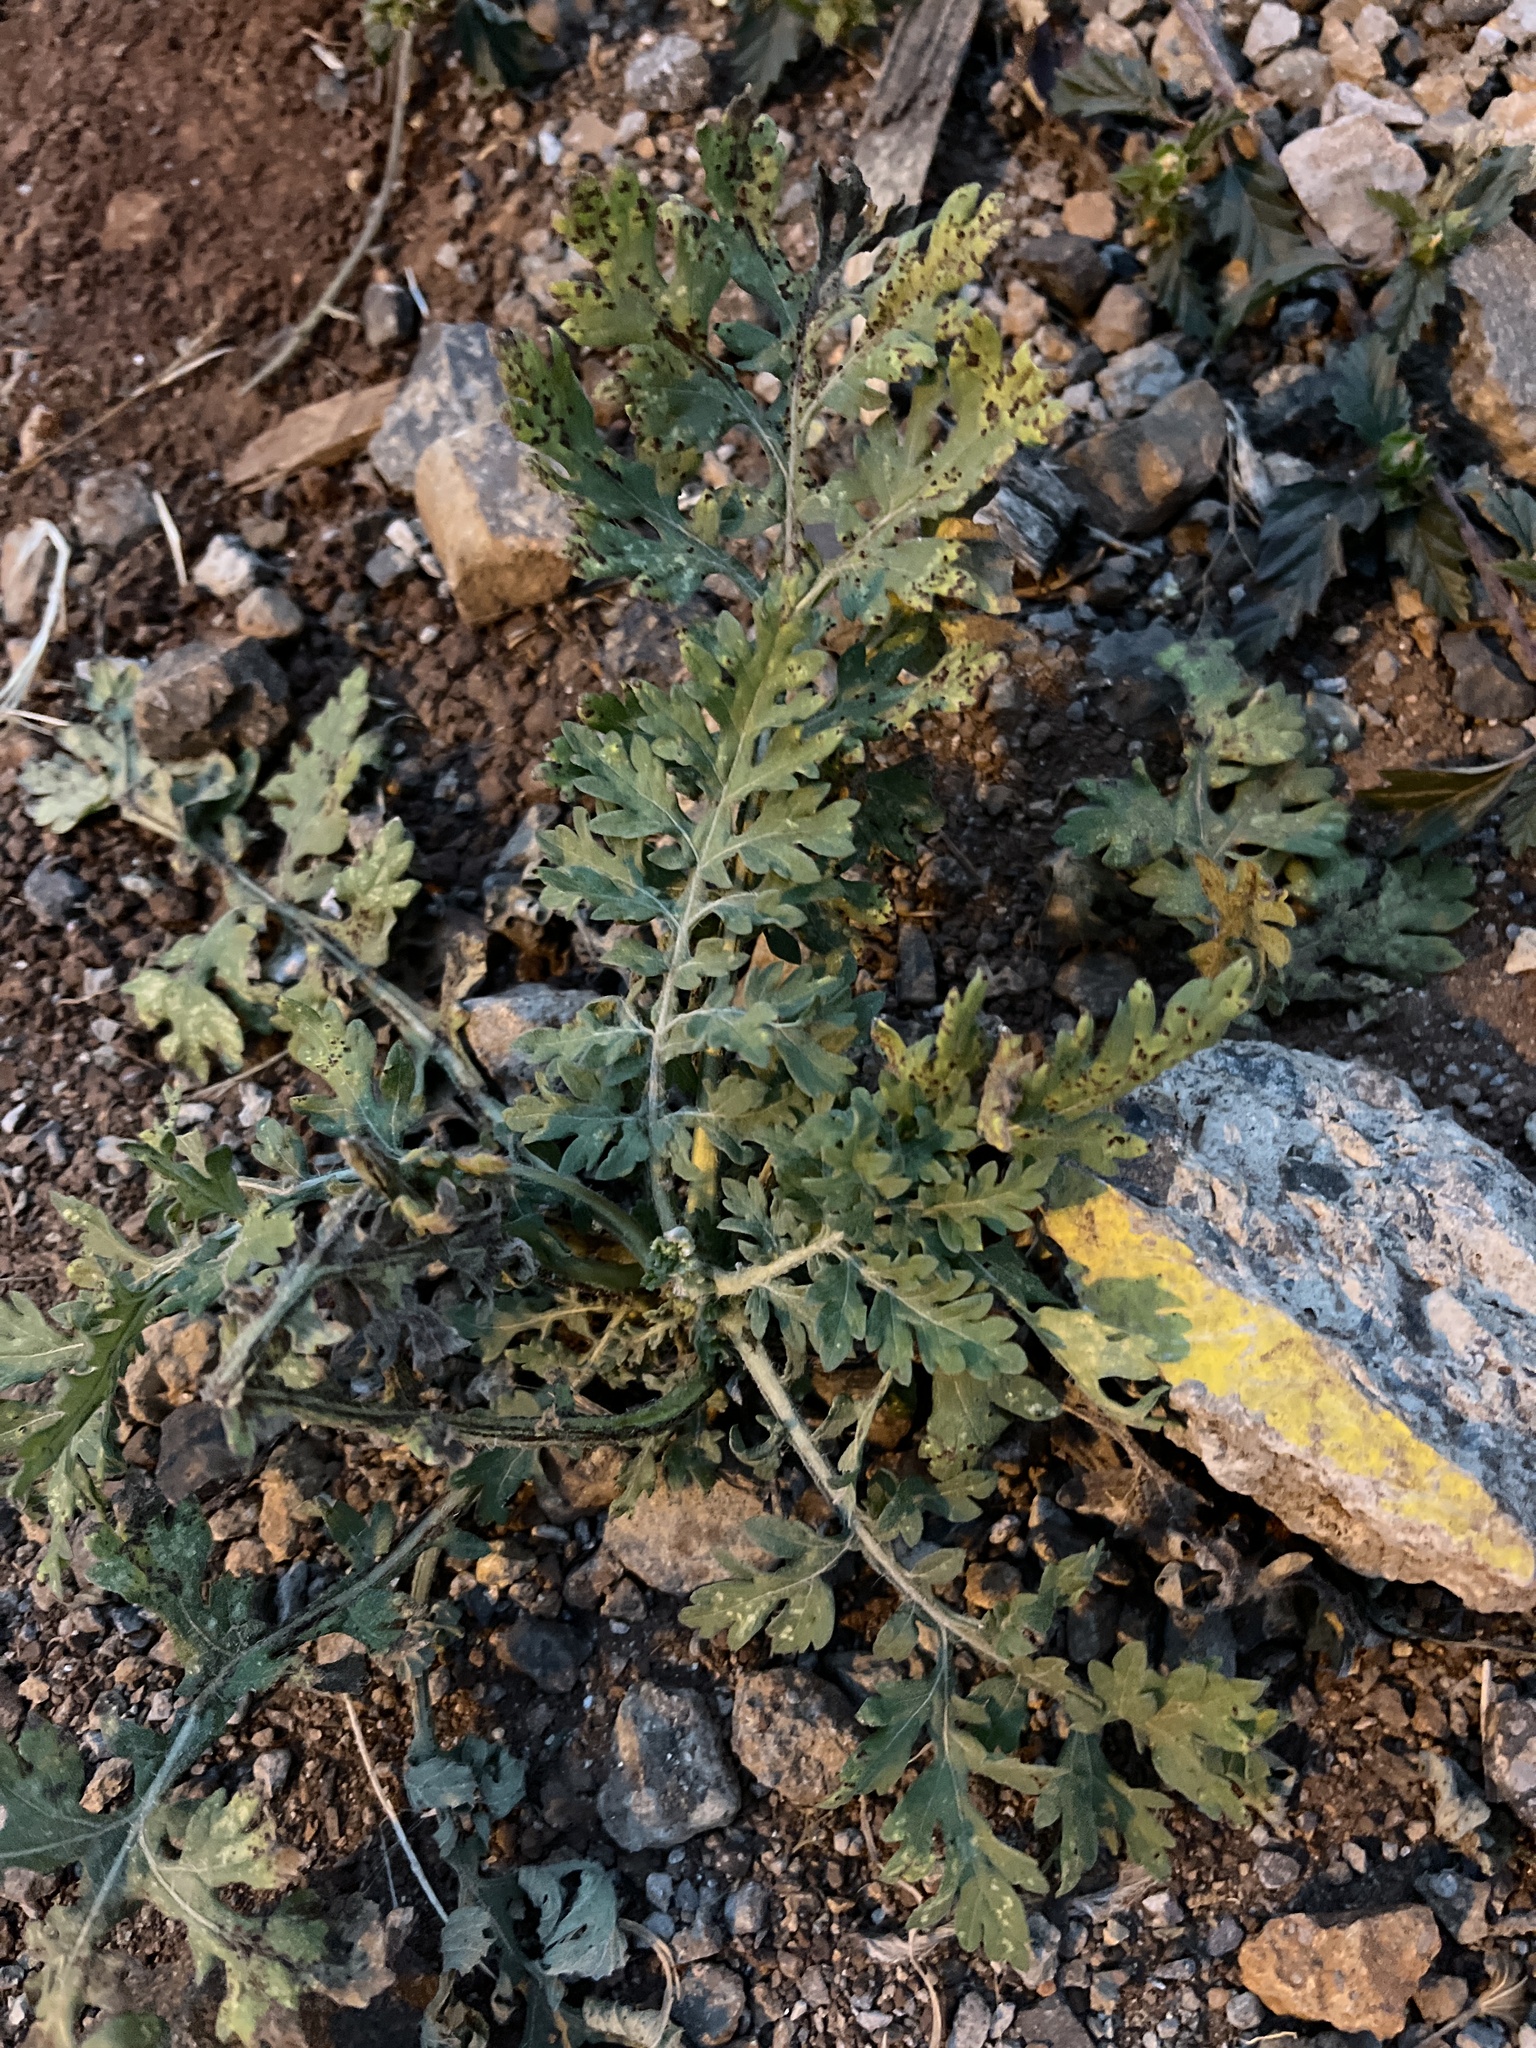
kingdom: Plantae
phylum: Tracheophyta
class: Magnoliopsida
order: Asterales
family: Asteraceae
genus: Parthenium
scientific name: Parthenium hysterophorus
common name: Santa maria feverfew
